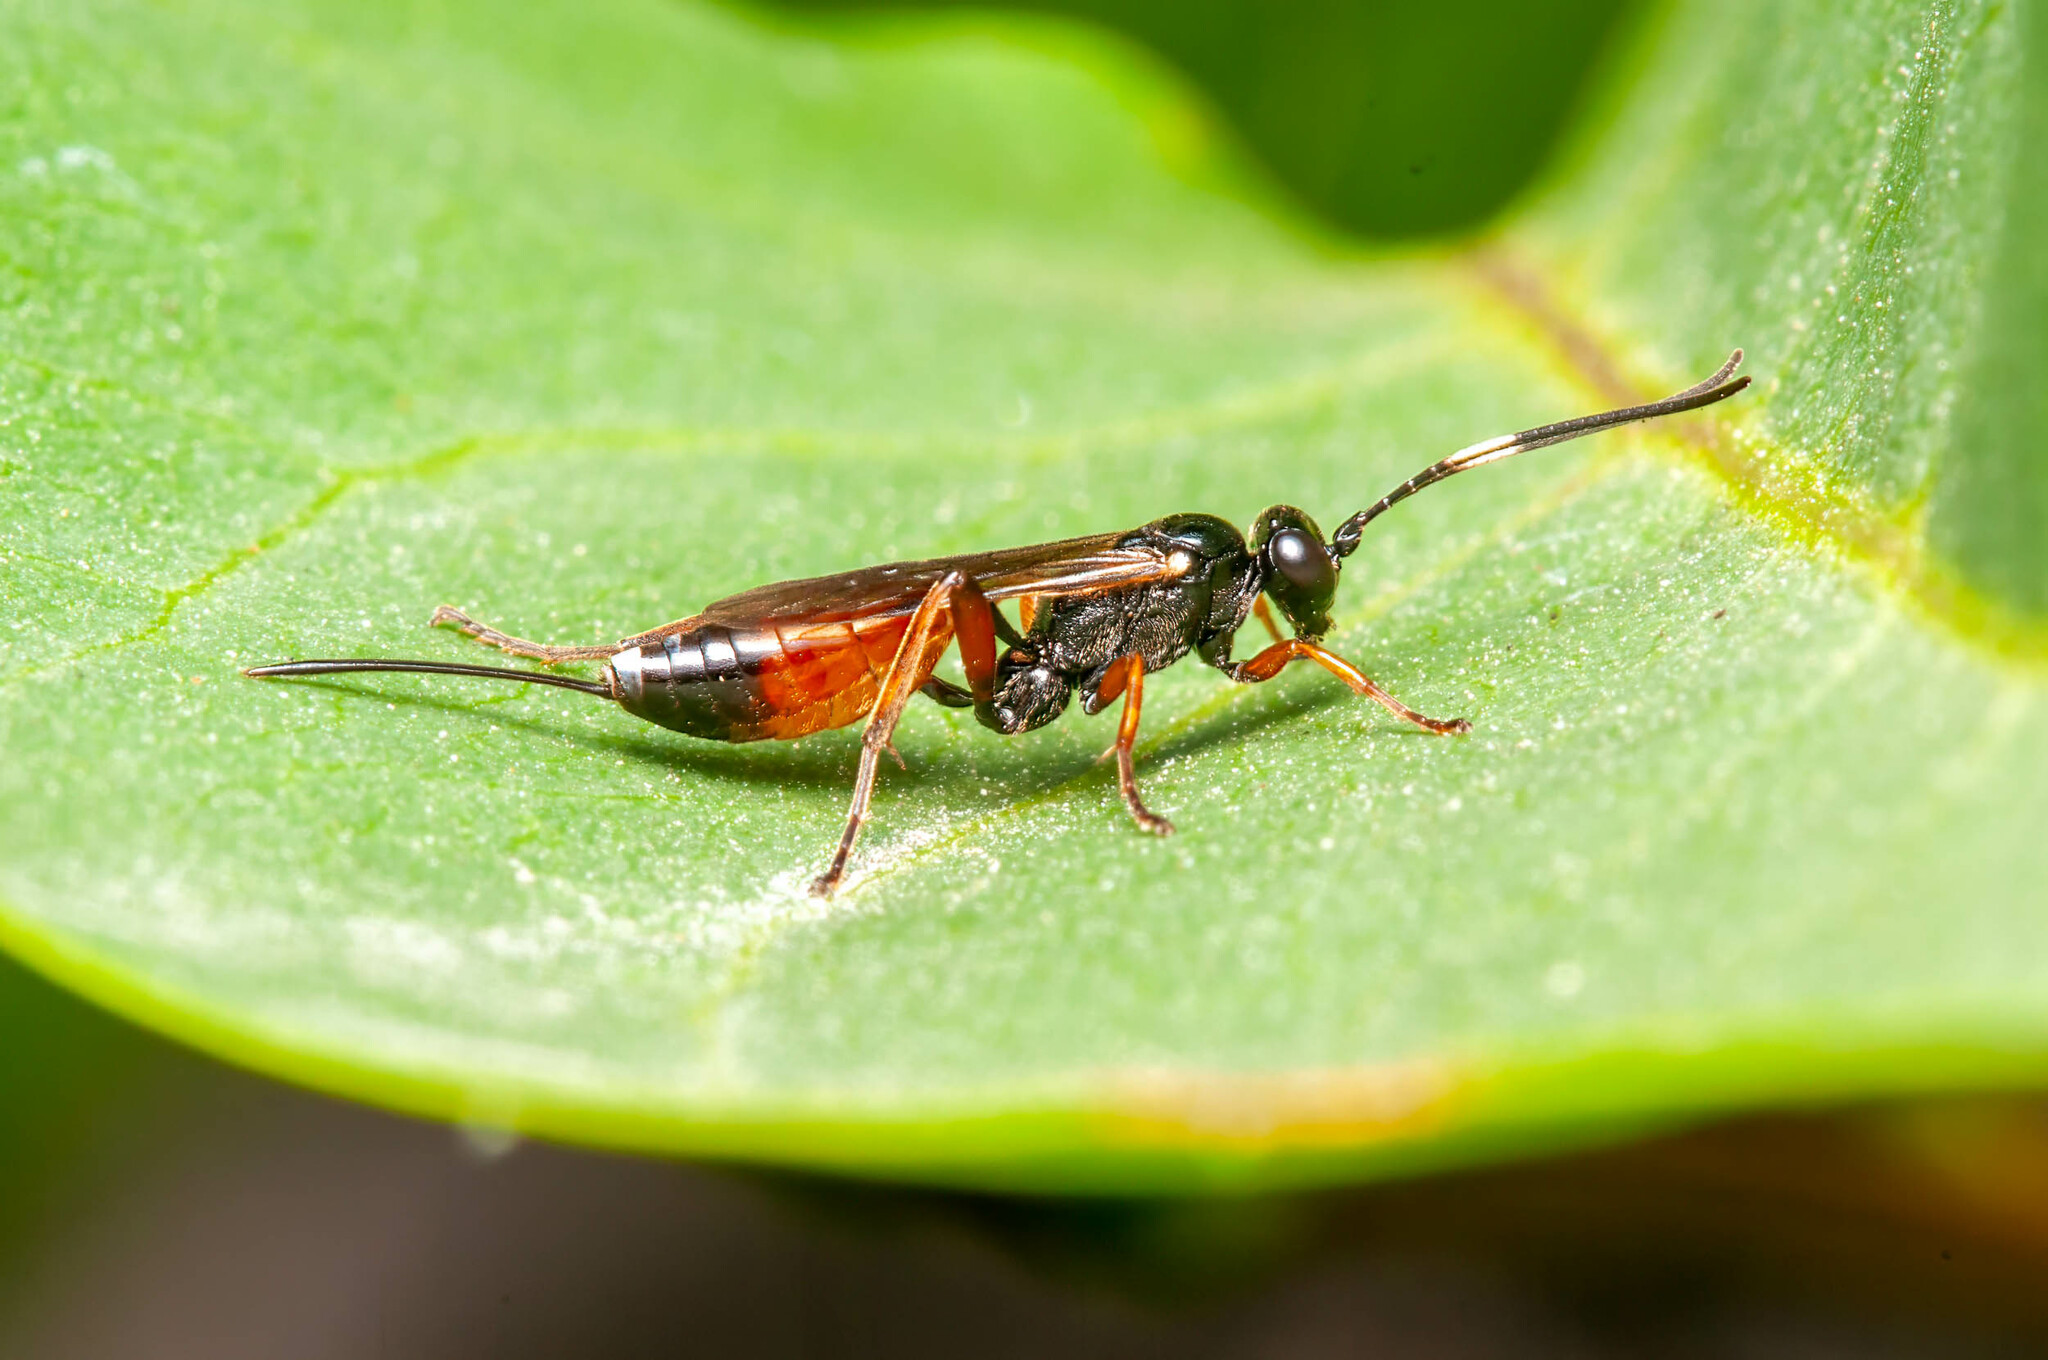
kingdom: Animalia
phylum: Arthropoda
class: Insecta
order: Hymenoptera
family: Ichneumonidae
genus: Aritranis
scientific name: Aritranis director
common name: Ichneumonid wasp
